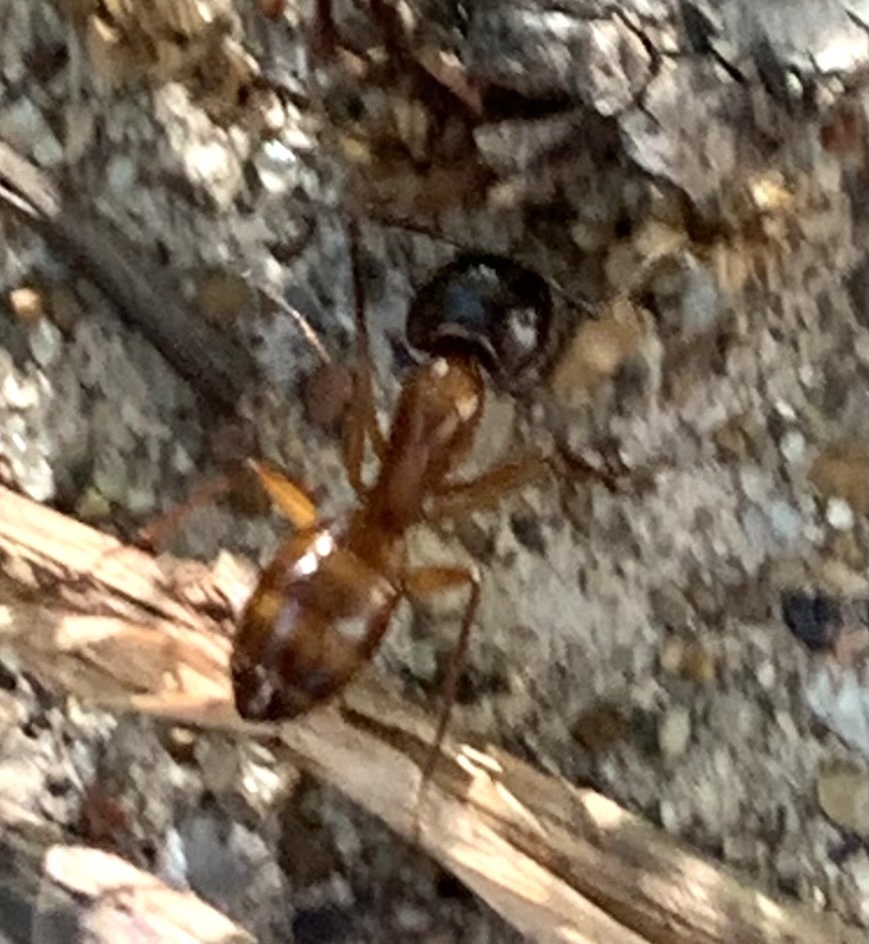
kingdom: Animalia
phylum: Arthropoda
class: Insecta
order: Hymenoptera
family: Formicidae
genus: Camponotus
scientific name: Camponotus americanus
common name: American carpenter ant
